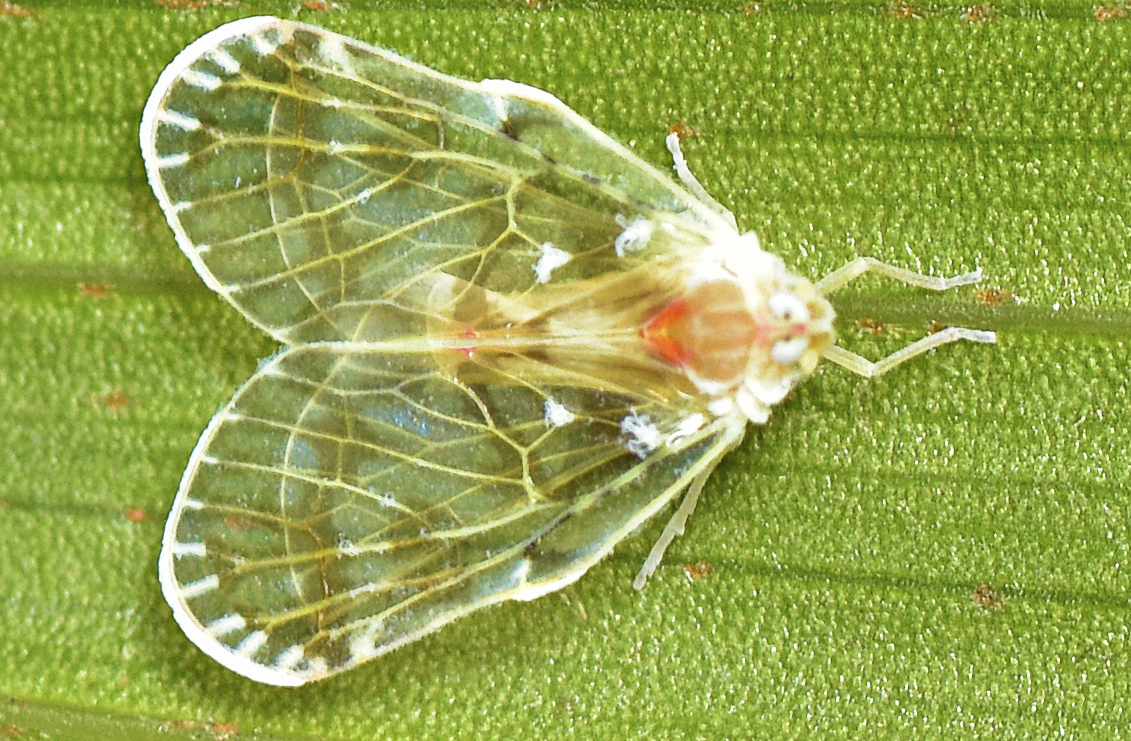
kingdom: Animalia
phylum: Arthropoda
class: Insecta
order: Hemiptera
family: Derbidae
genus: Saccharodite
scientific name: Saccharodite chrysonoe
